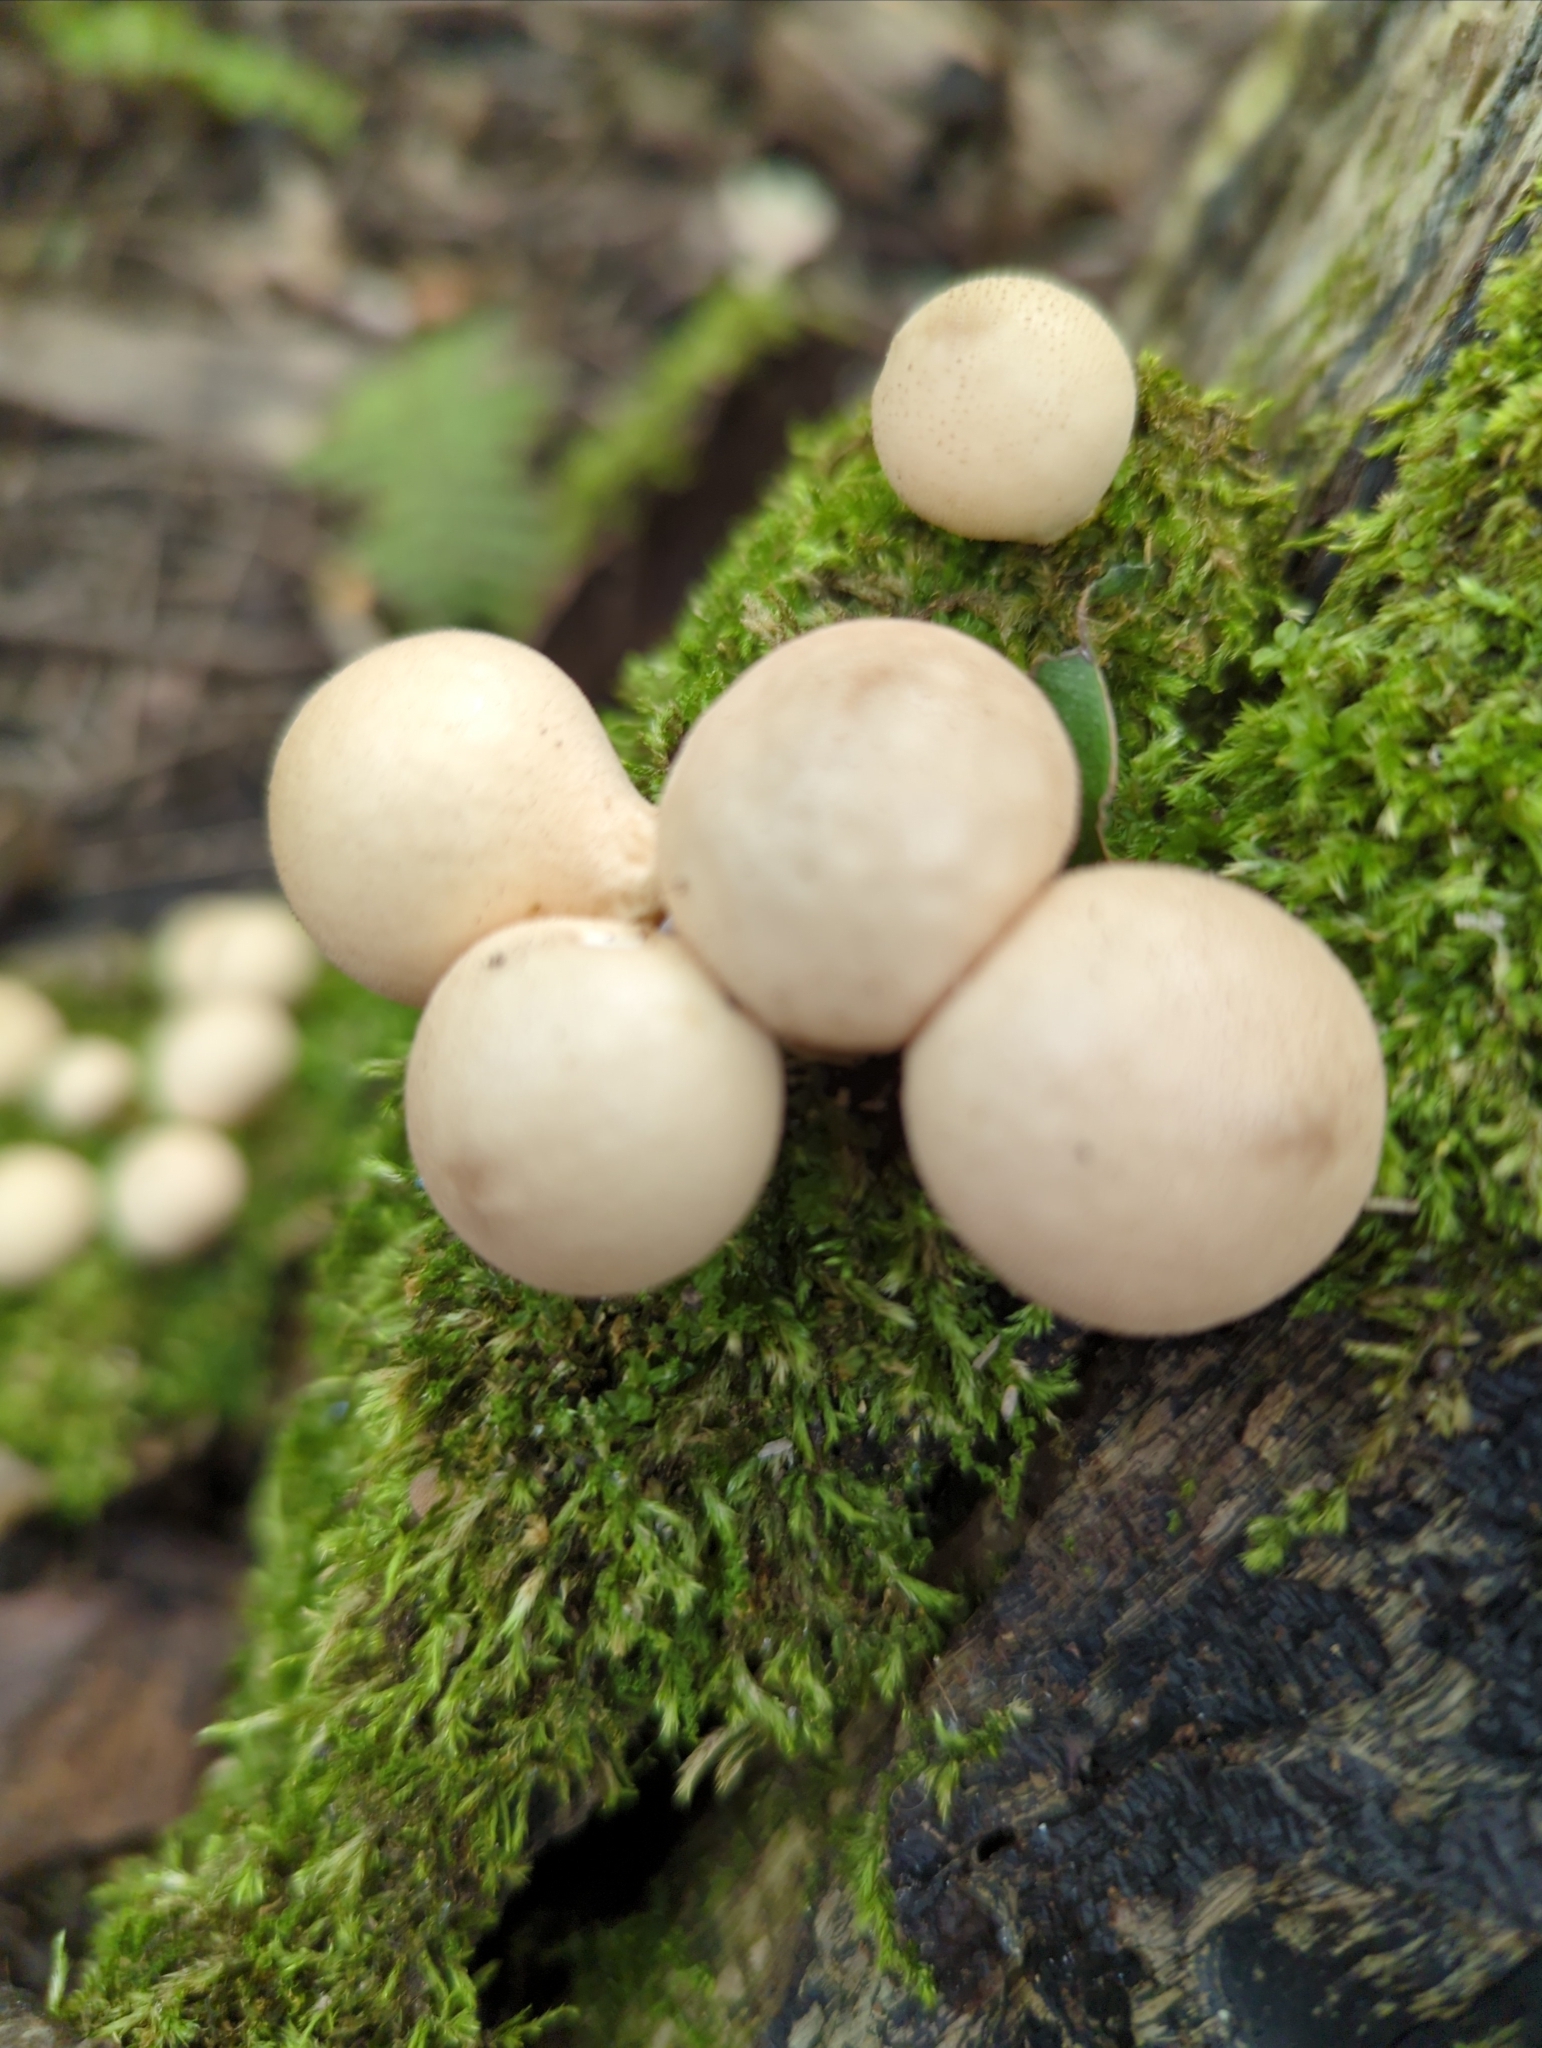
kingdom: Fungi
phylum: Basidiomycota
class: Agaricomycetes
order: Agaricales
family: Lycoperdaceae
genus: Apioperdon
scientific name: Apioperdon pyriforme
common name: Pear-shaped puffball
